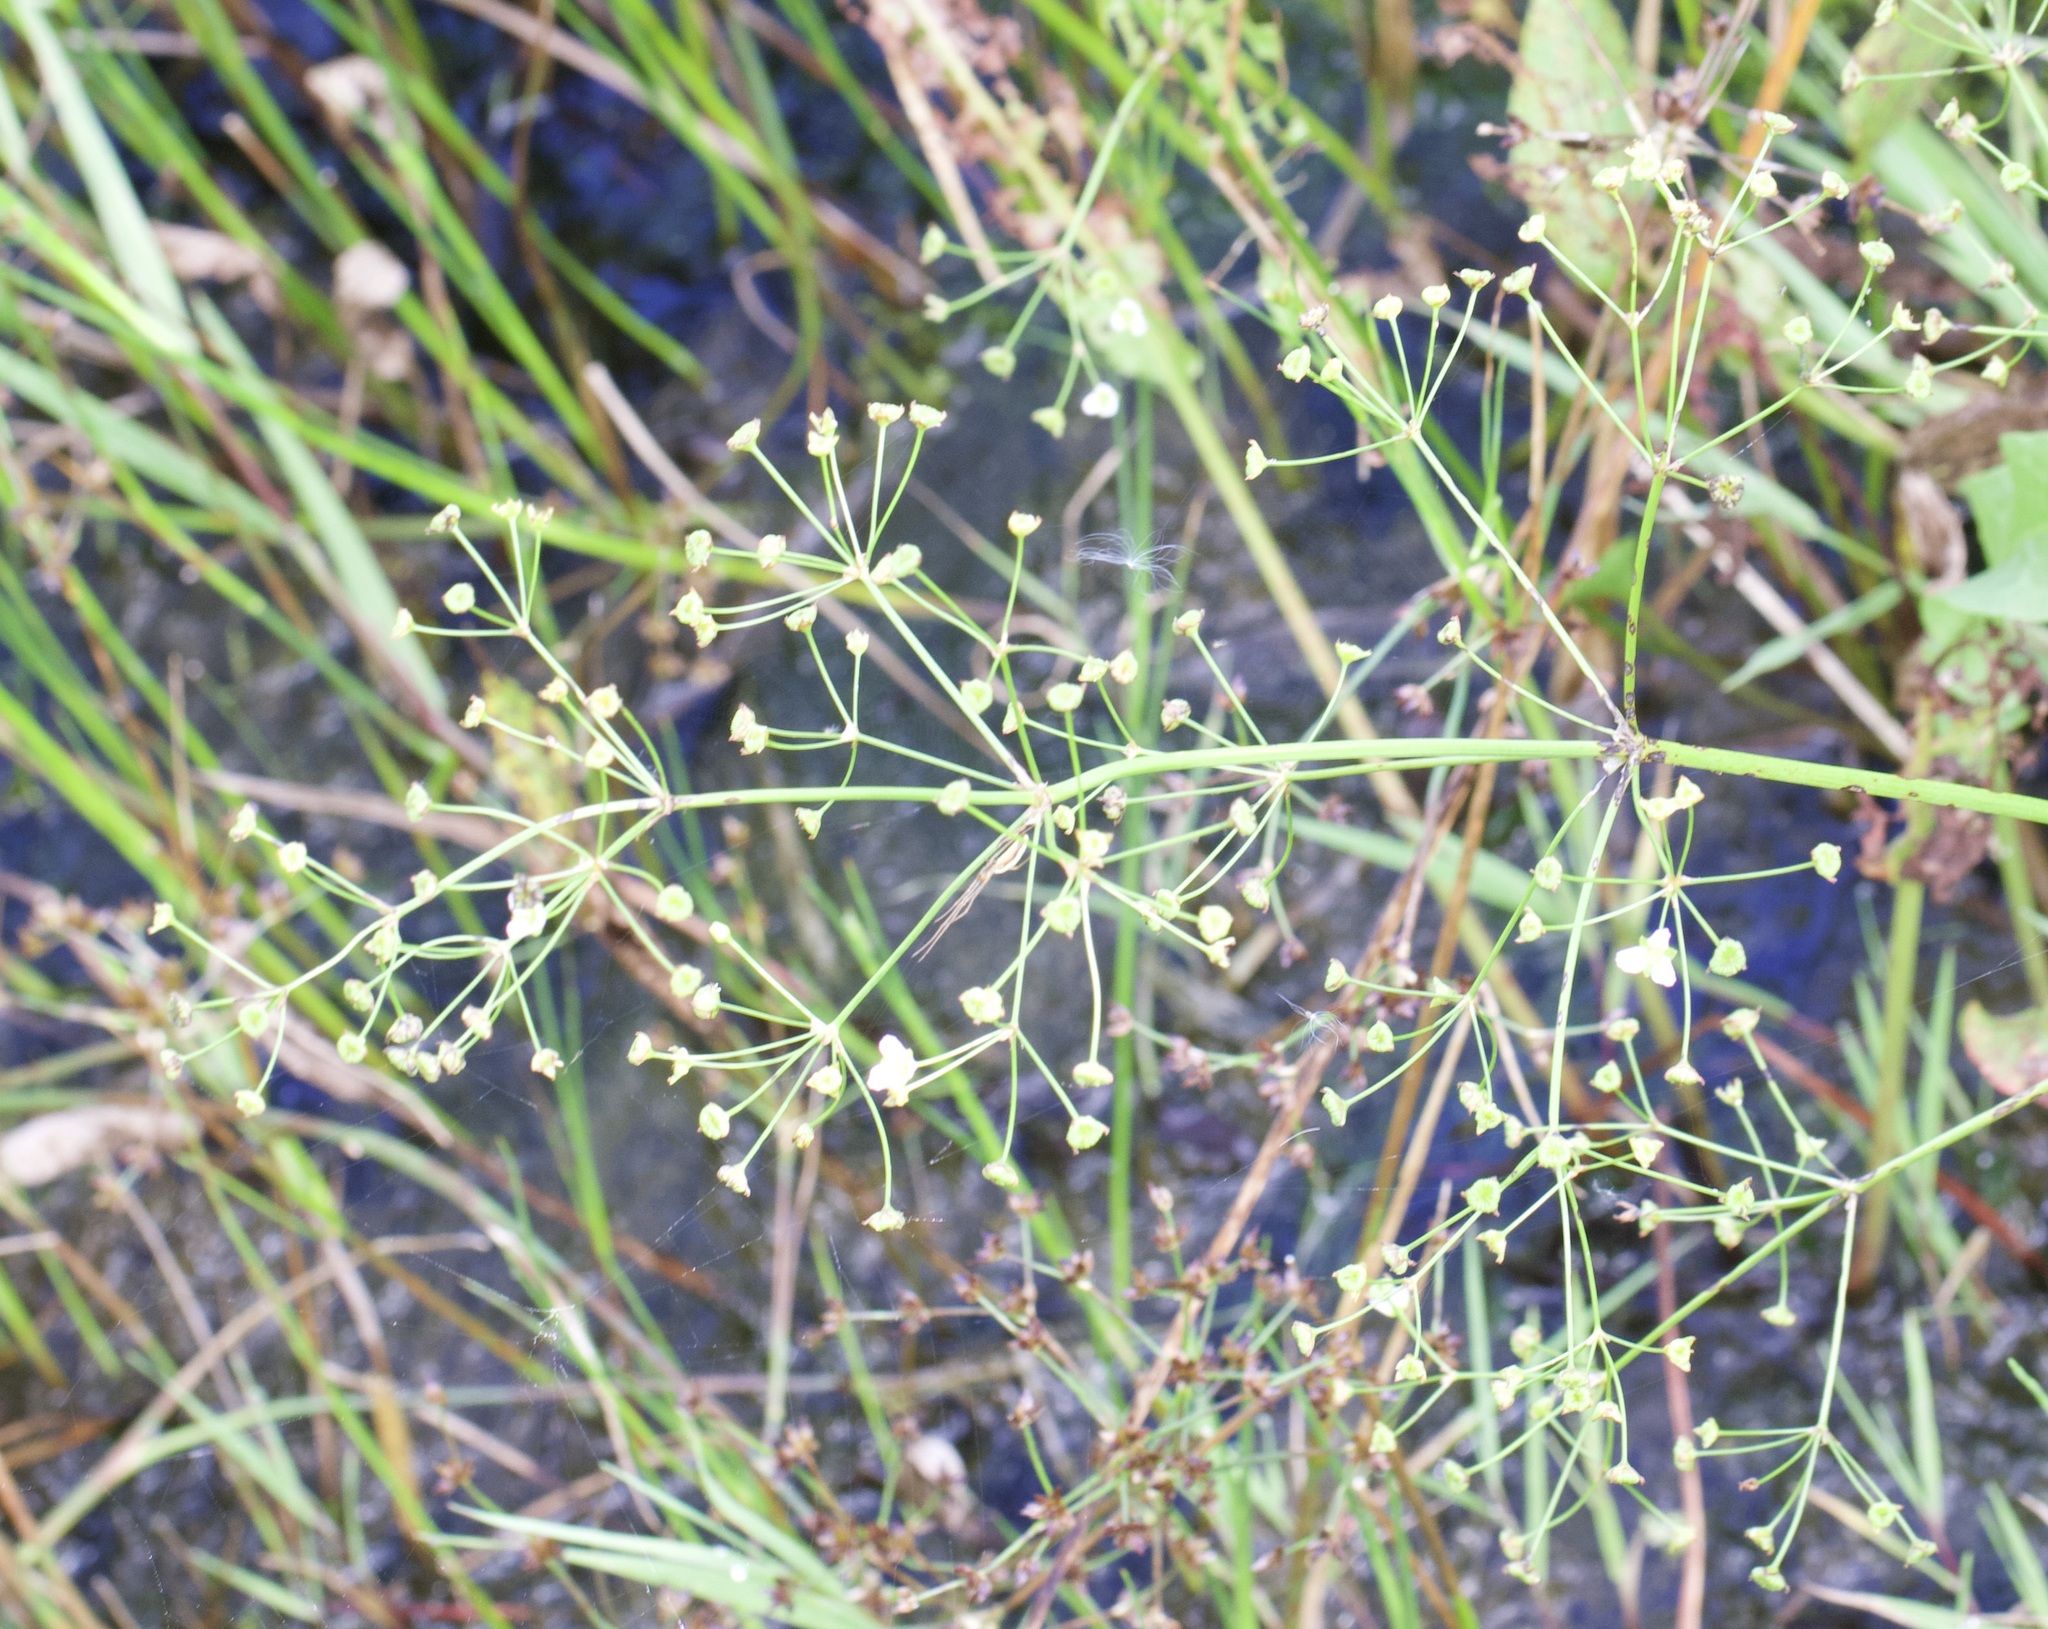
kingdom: Plantae
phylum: Tracheophyta
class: Liliopsida
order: Alismatales
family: Alismataceae
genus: Alisma
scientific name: Alisma plantago-aquatica
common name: Water-plantain
